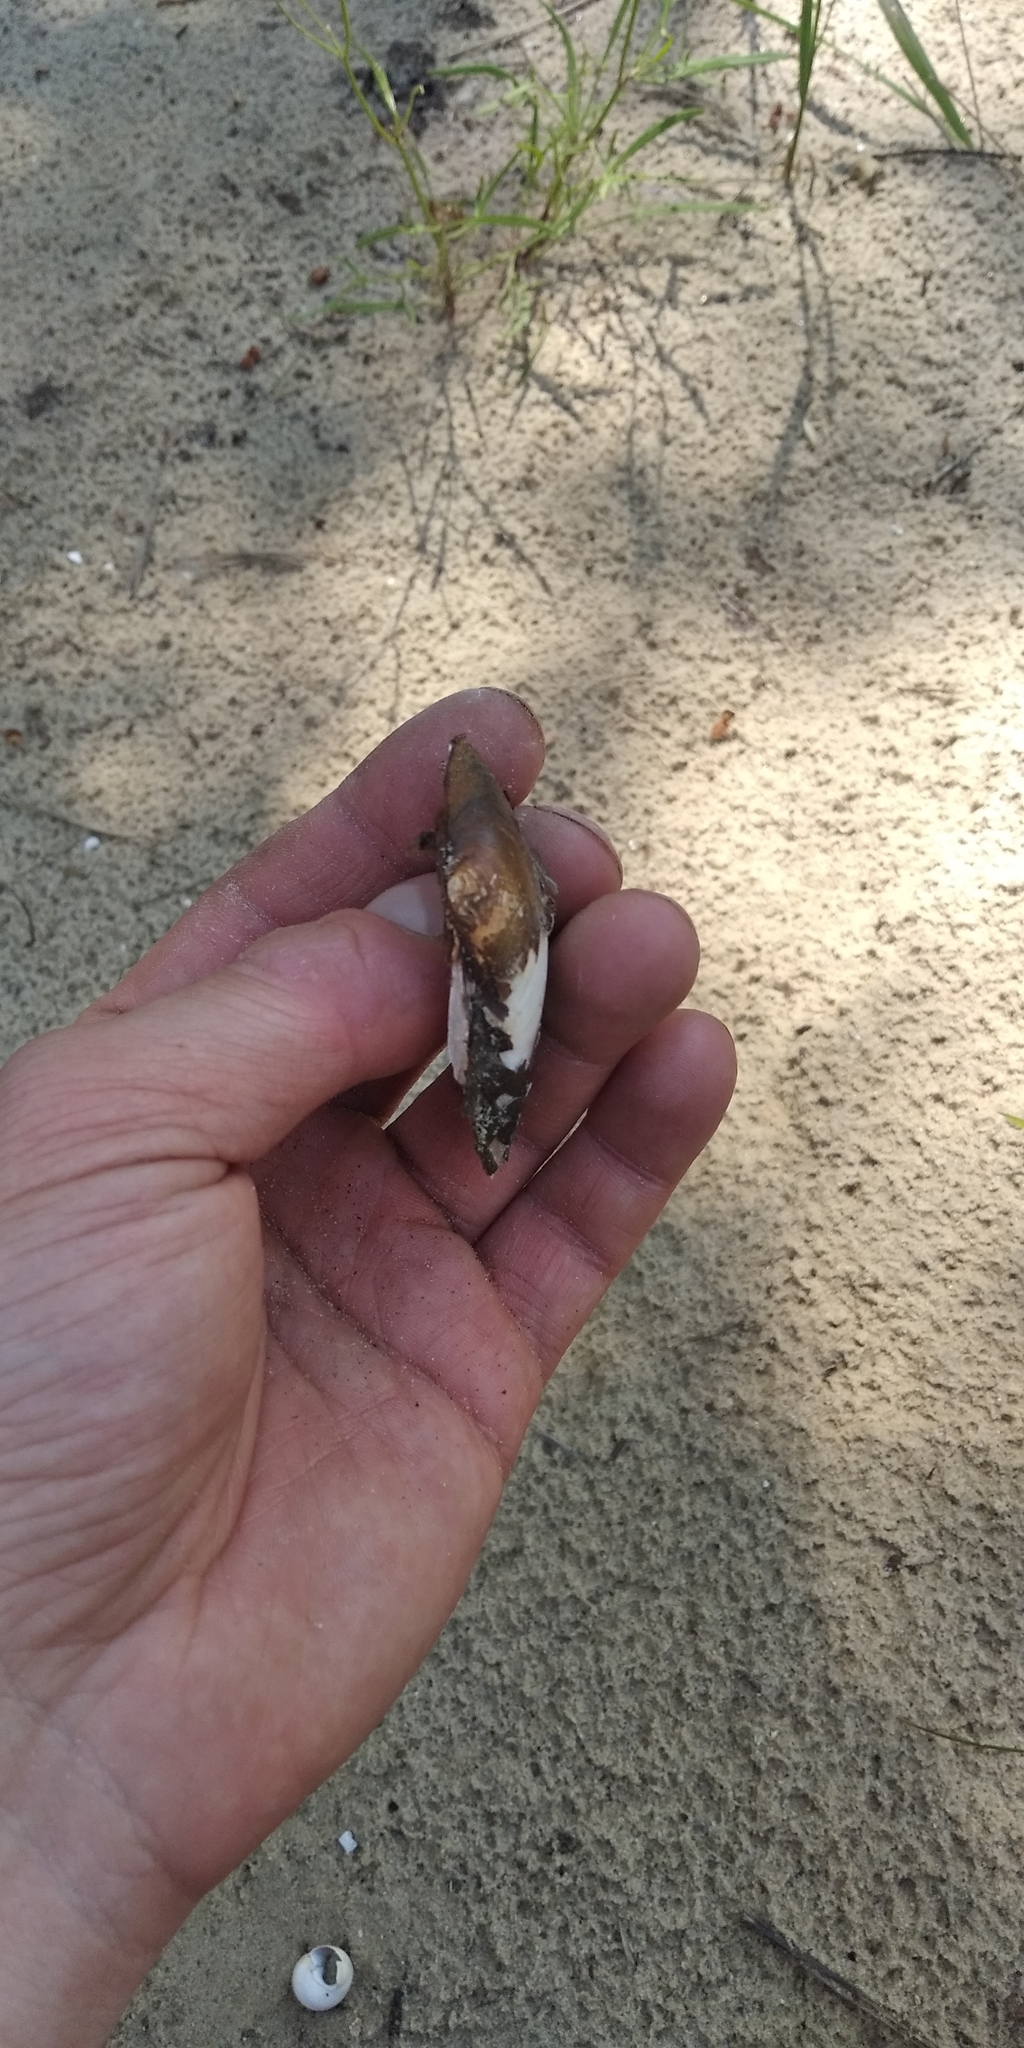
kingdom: Animalia
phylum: Mollusca
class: Bivalvia
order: Unionida
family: Unionidae
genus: Unio
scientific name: Unio tumidus
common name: Swollen river mussel
